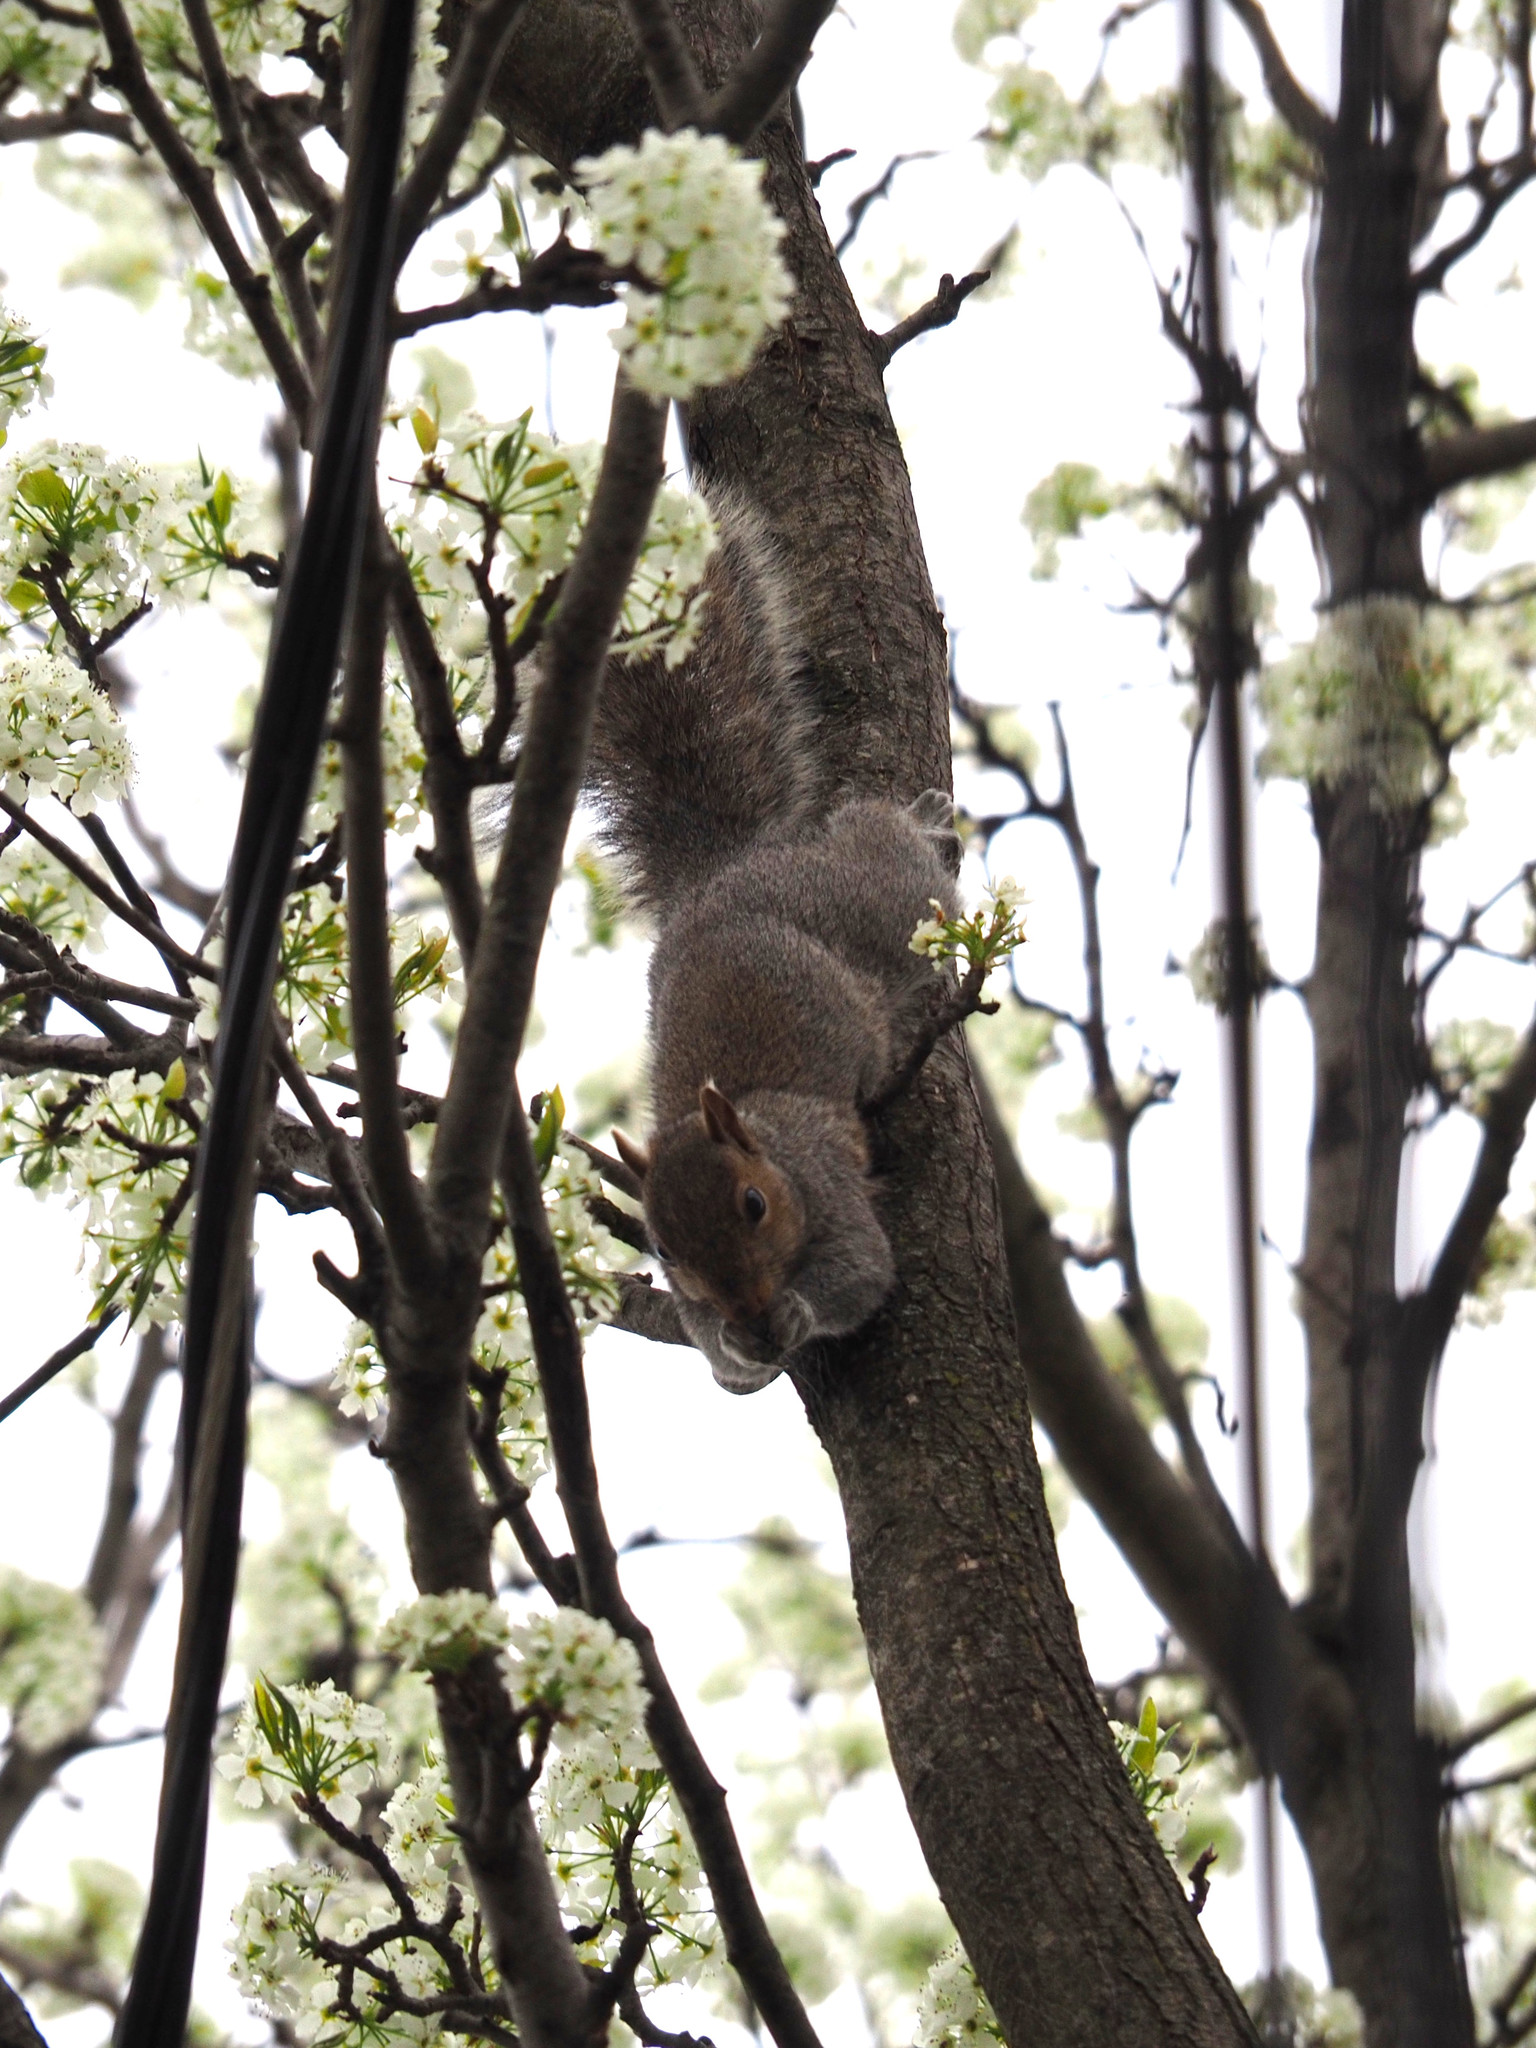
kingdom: Animalia
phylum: Chordata
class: Mammalia
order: Rodentia
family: Sciuridae
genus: Sciurus
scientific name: Sciurus carolinensis
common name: Eastern gray squirrel
